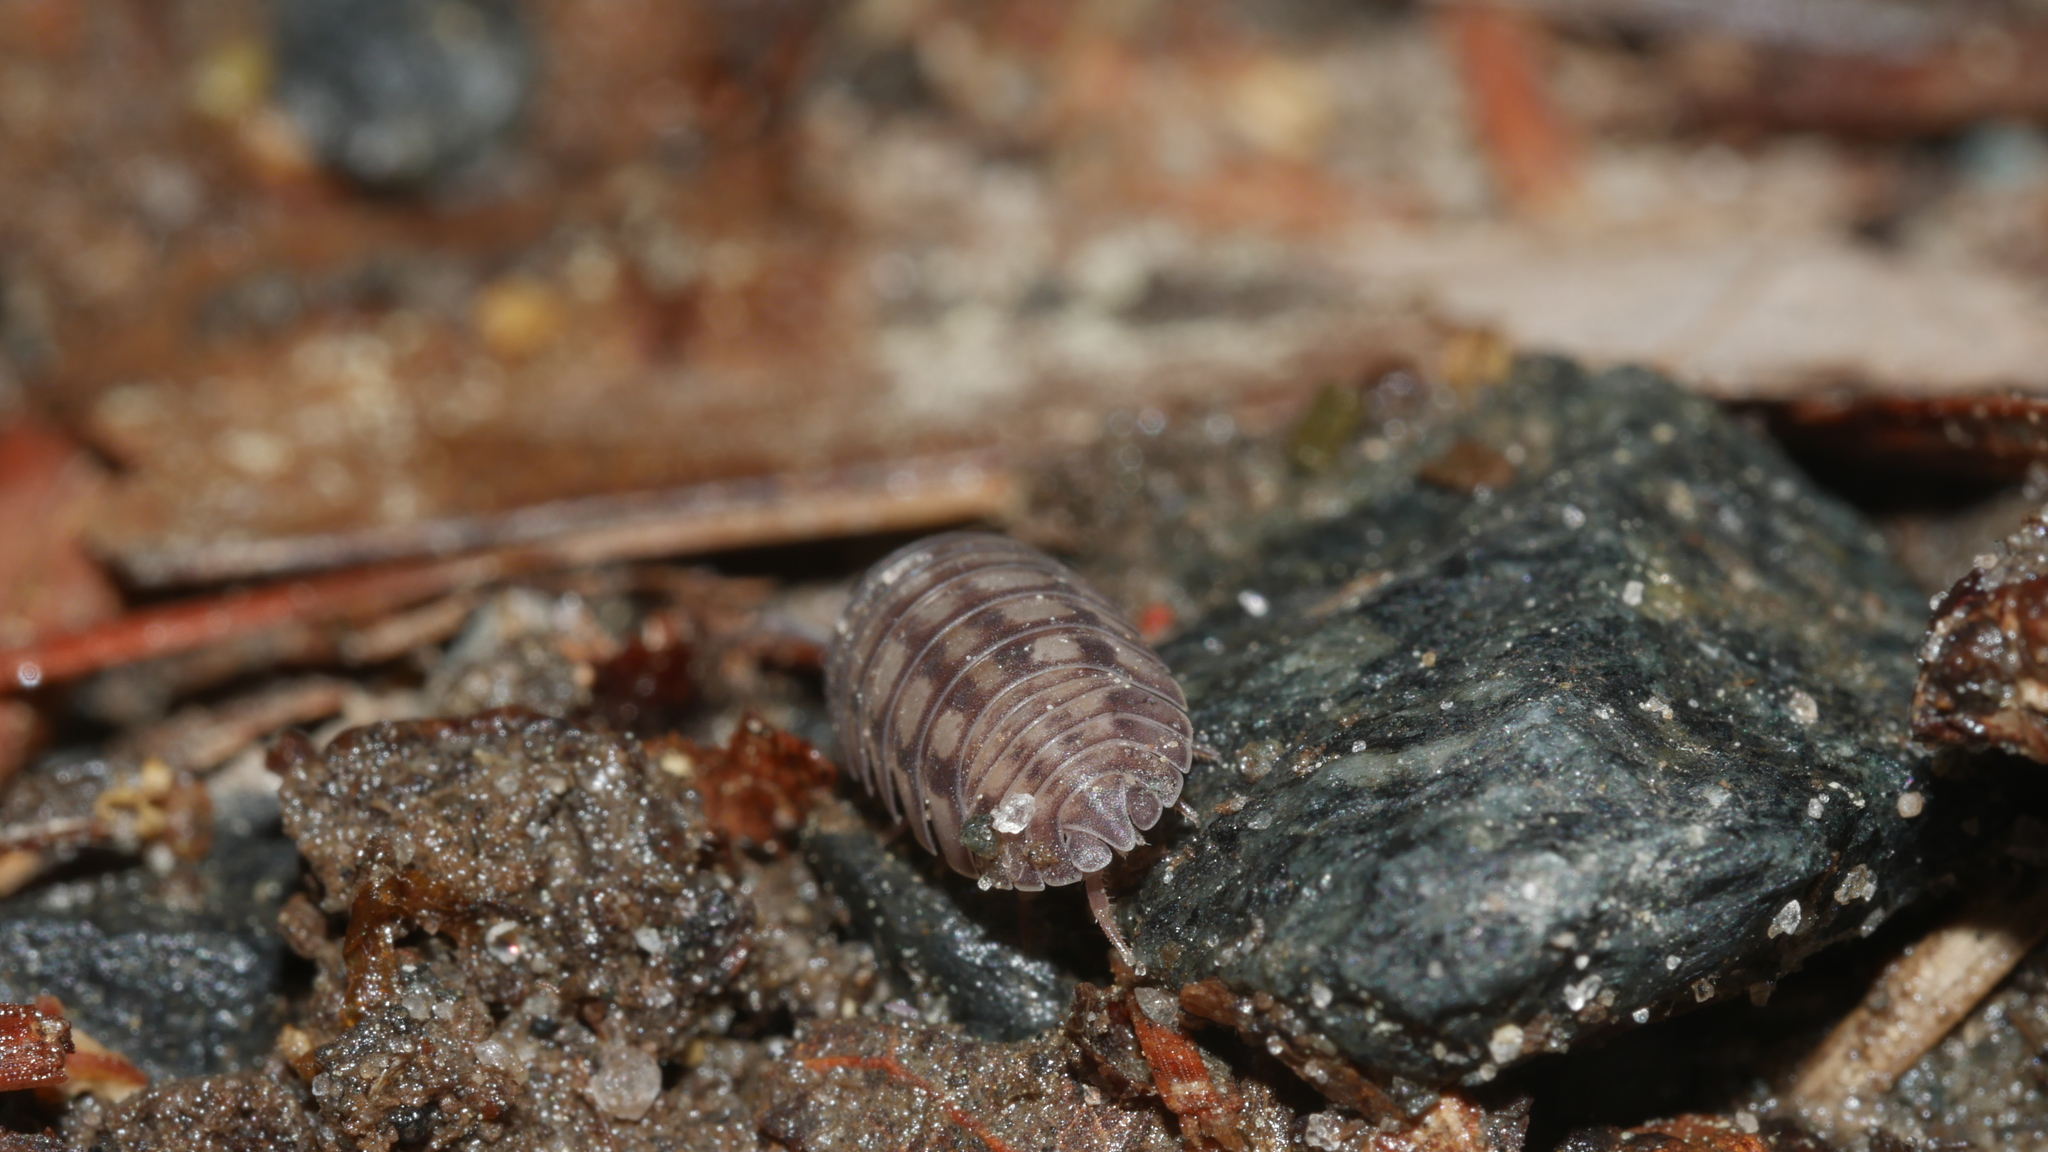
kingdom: Animalia
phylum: Arthropoda
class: Malacostraca
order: Isopoda
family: Armadillidiidae
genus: Armadillidium
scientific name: Armadillidium nasatum
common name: Isopod
